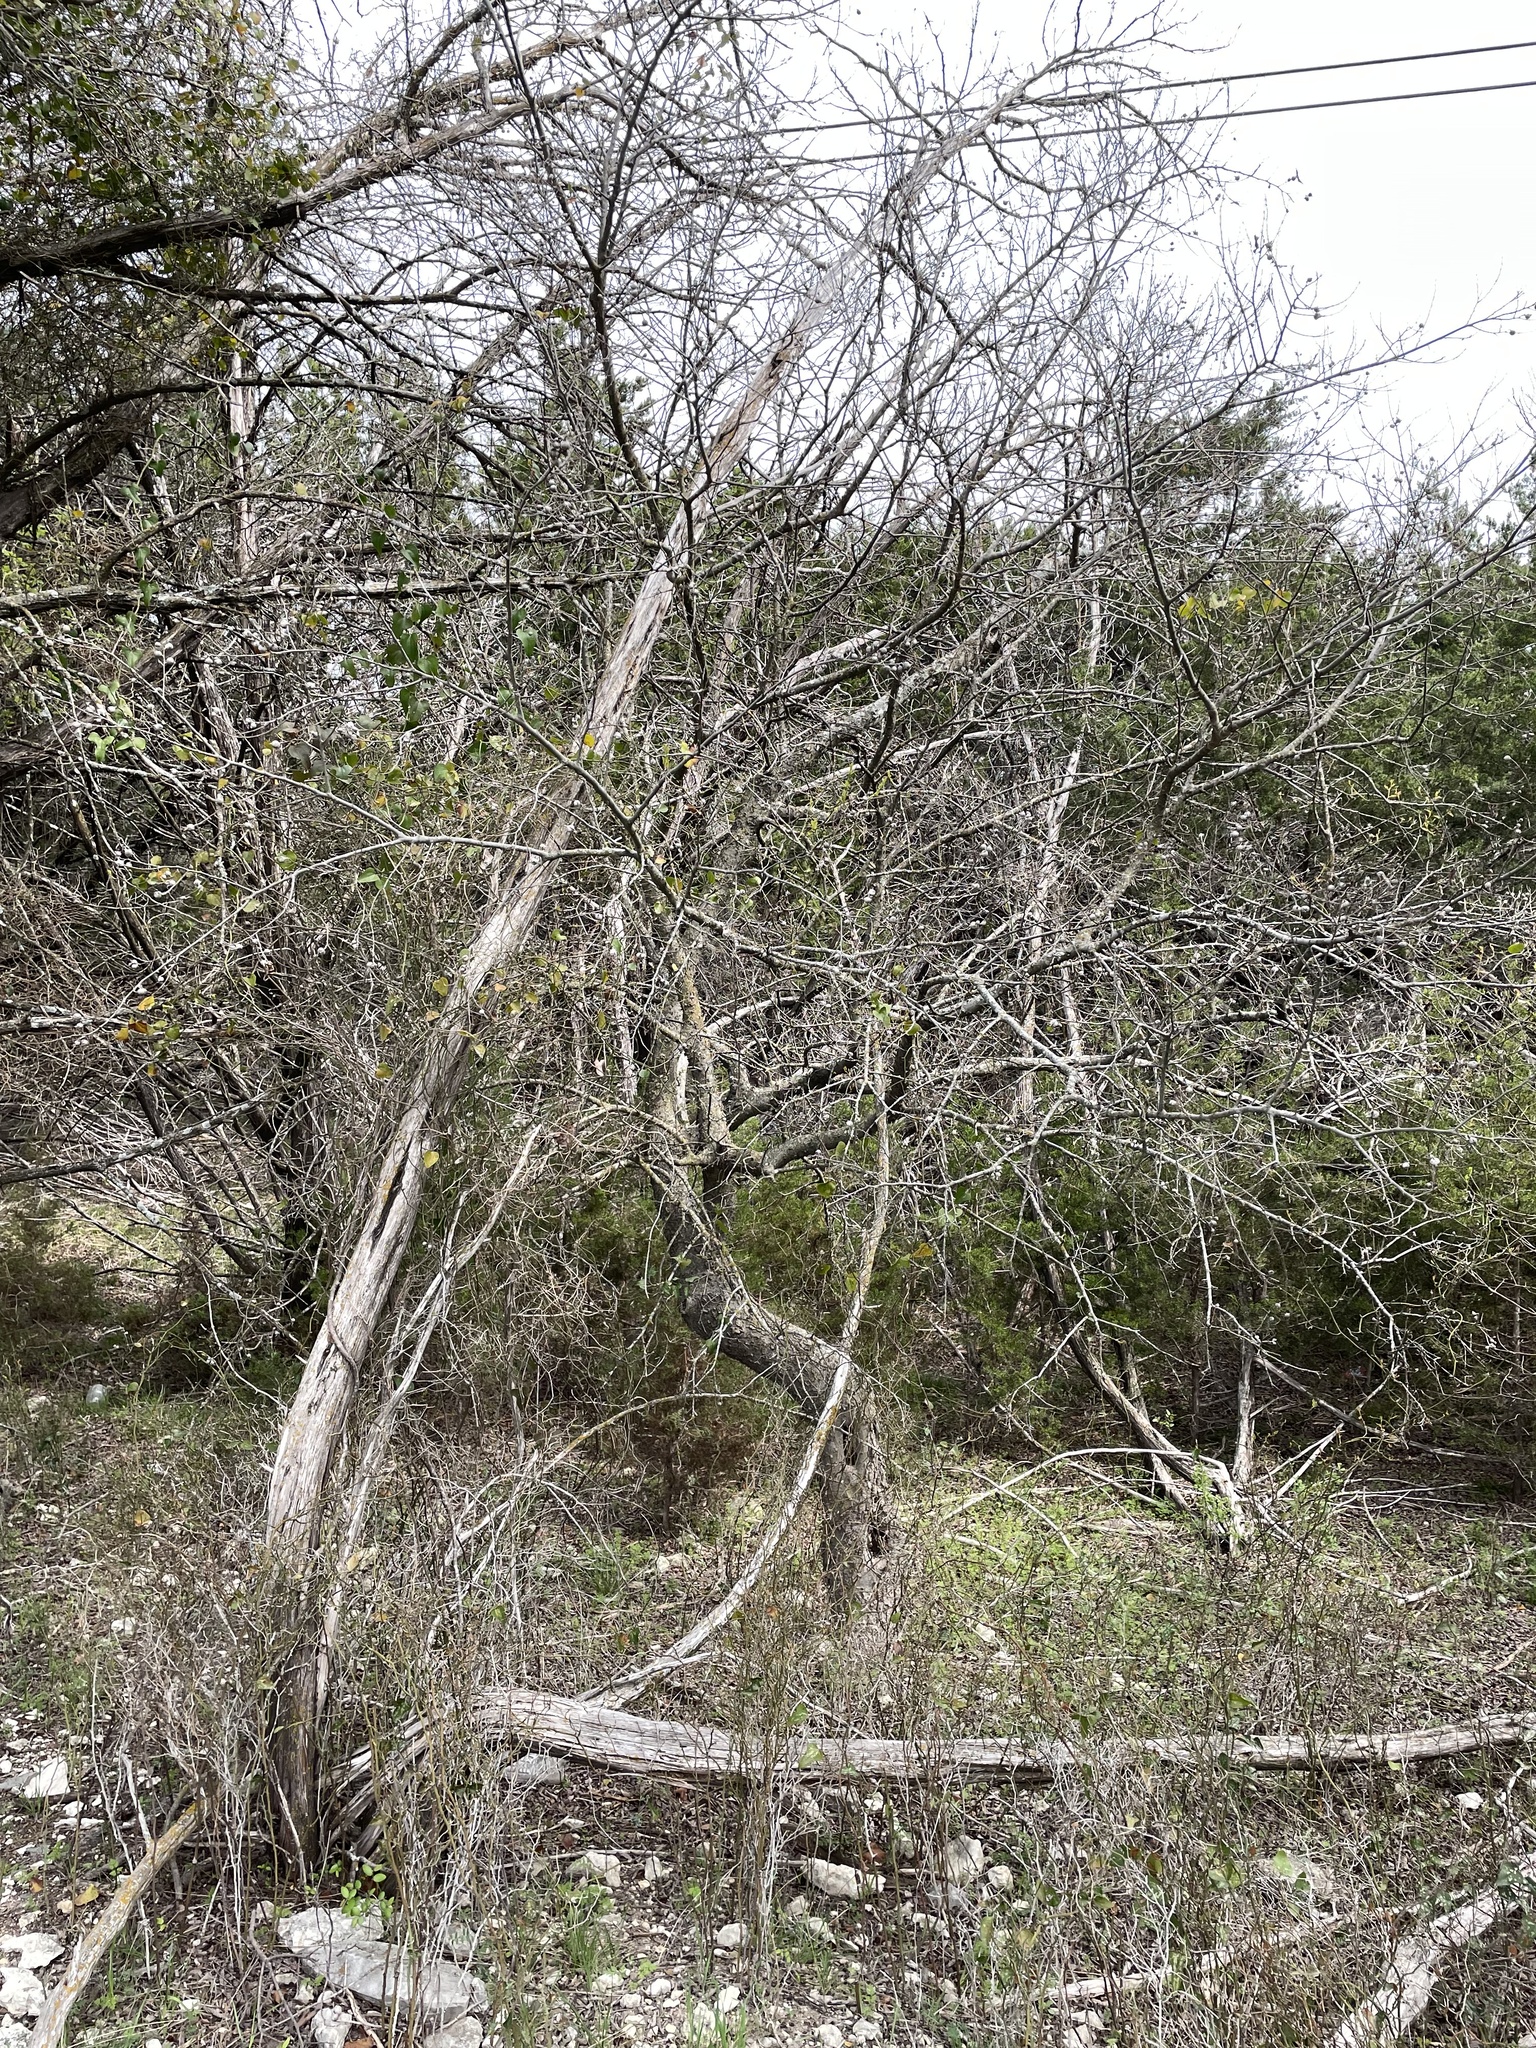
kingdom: Animalia
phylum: Arthropoda
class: Insecta
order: Hemiptera
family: Aphalaridae
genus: Pachypsylla
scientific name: Pachypsylla venusta
